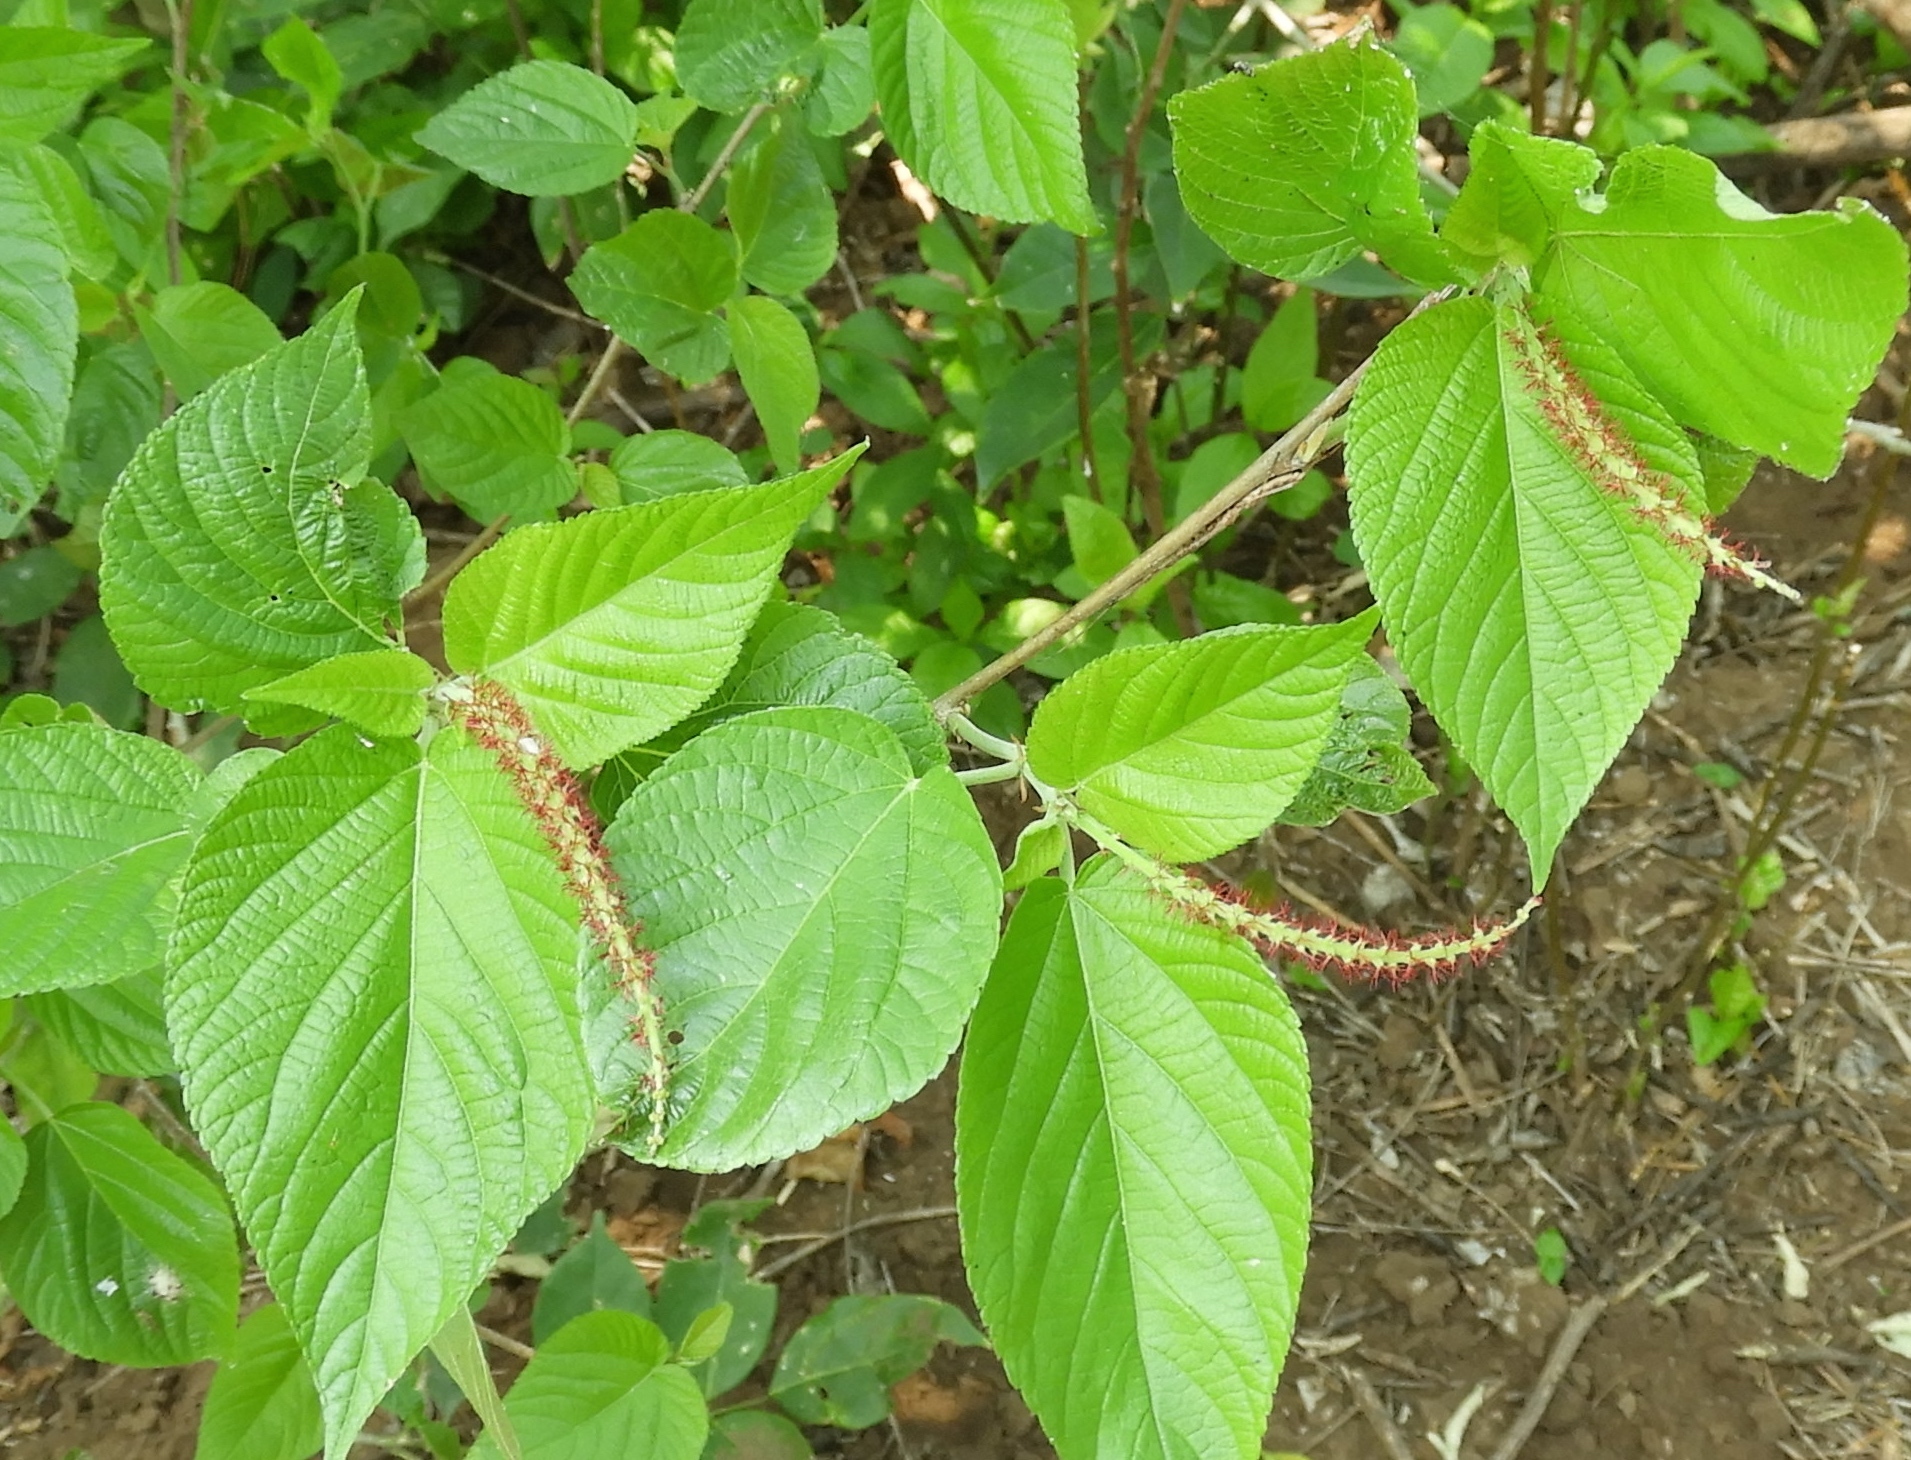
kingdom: Plantae
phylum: Tracheophyta
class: Magnoliopsida
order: Malpighiales
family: Euphorbiaceae
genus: Acalypha
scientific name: Acalypha cincta
